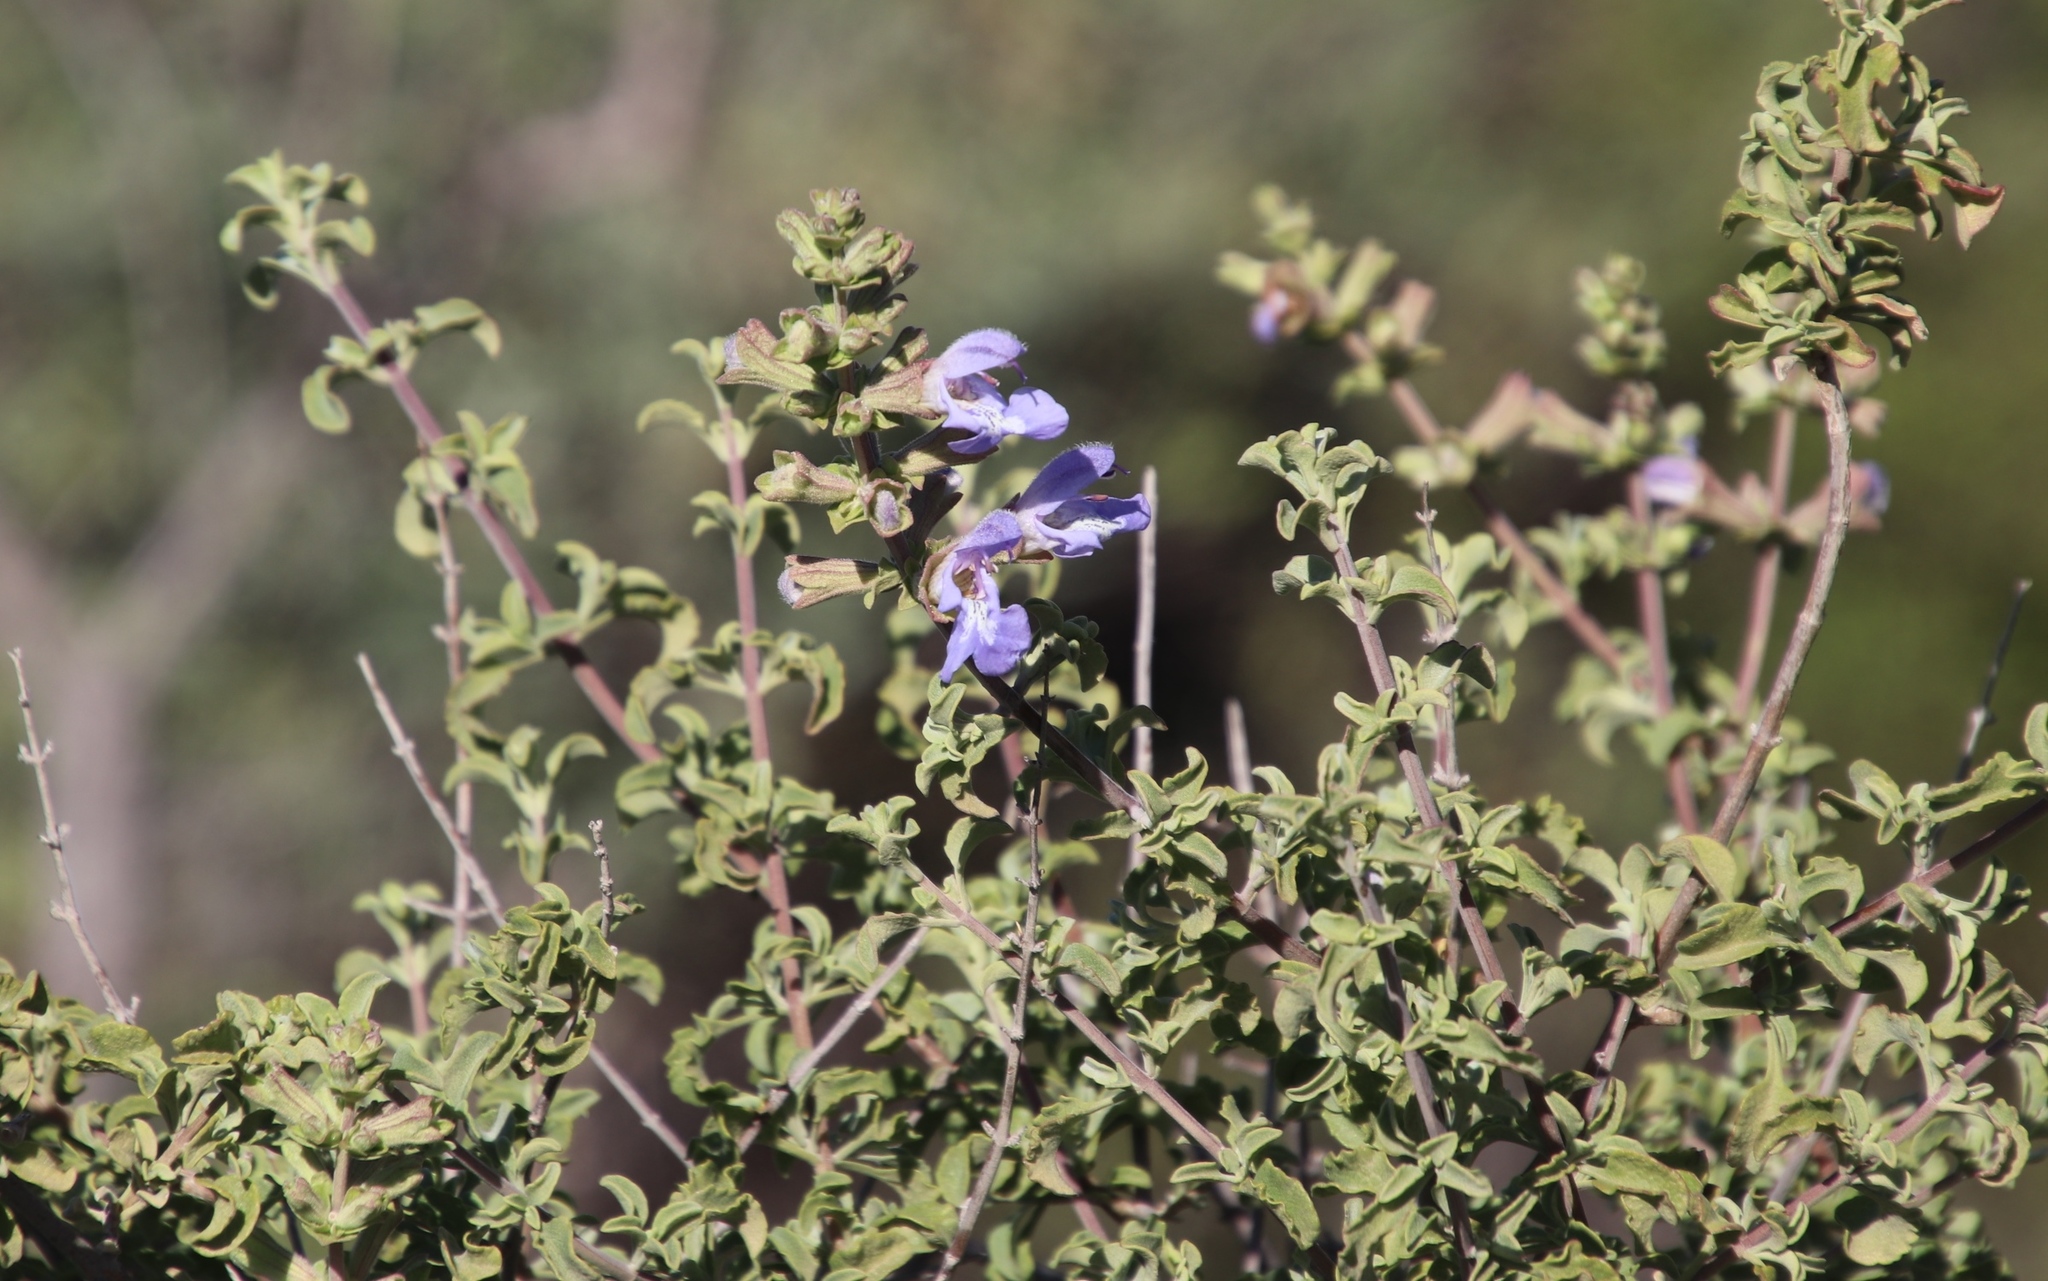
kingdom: Plantae
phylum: Tracheophyta
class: Magnoliopsida
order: Lamiales
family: Lamiaceae
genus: Salvia
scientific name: Salvia dentata
